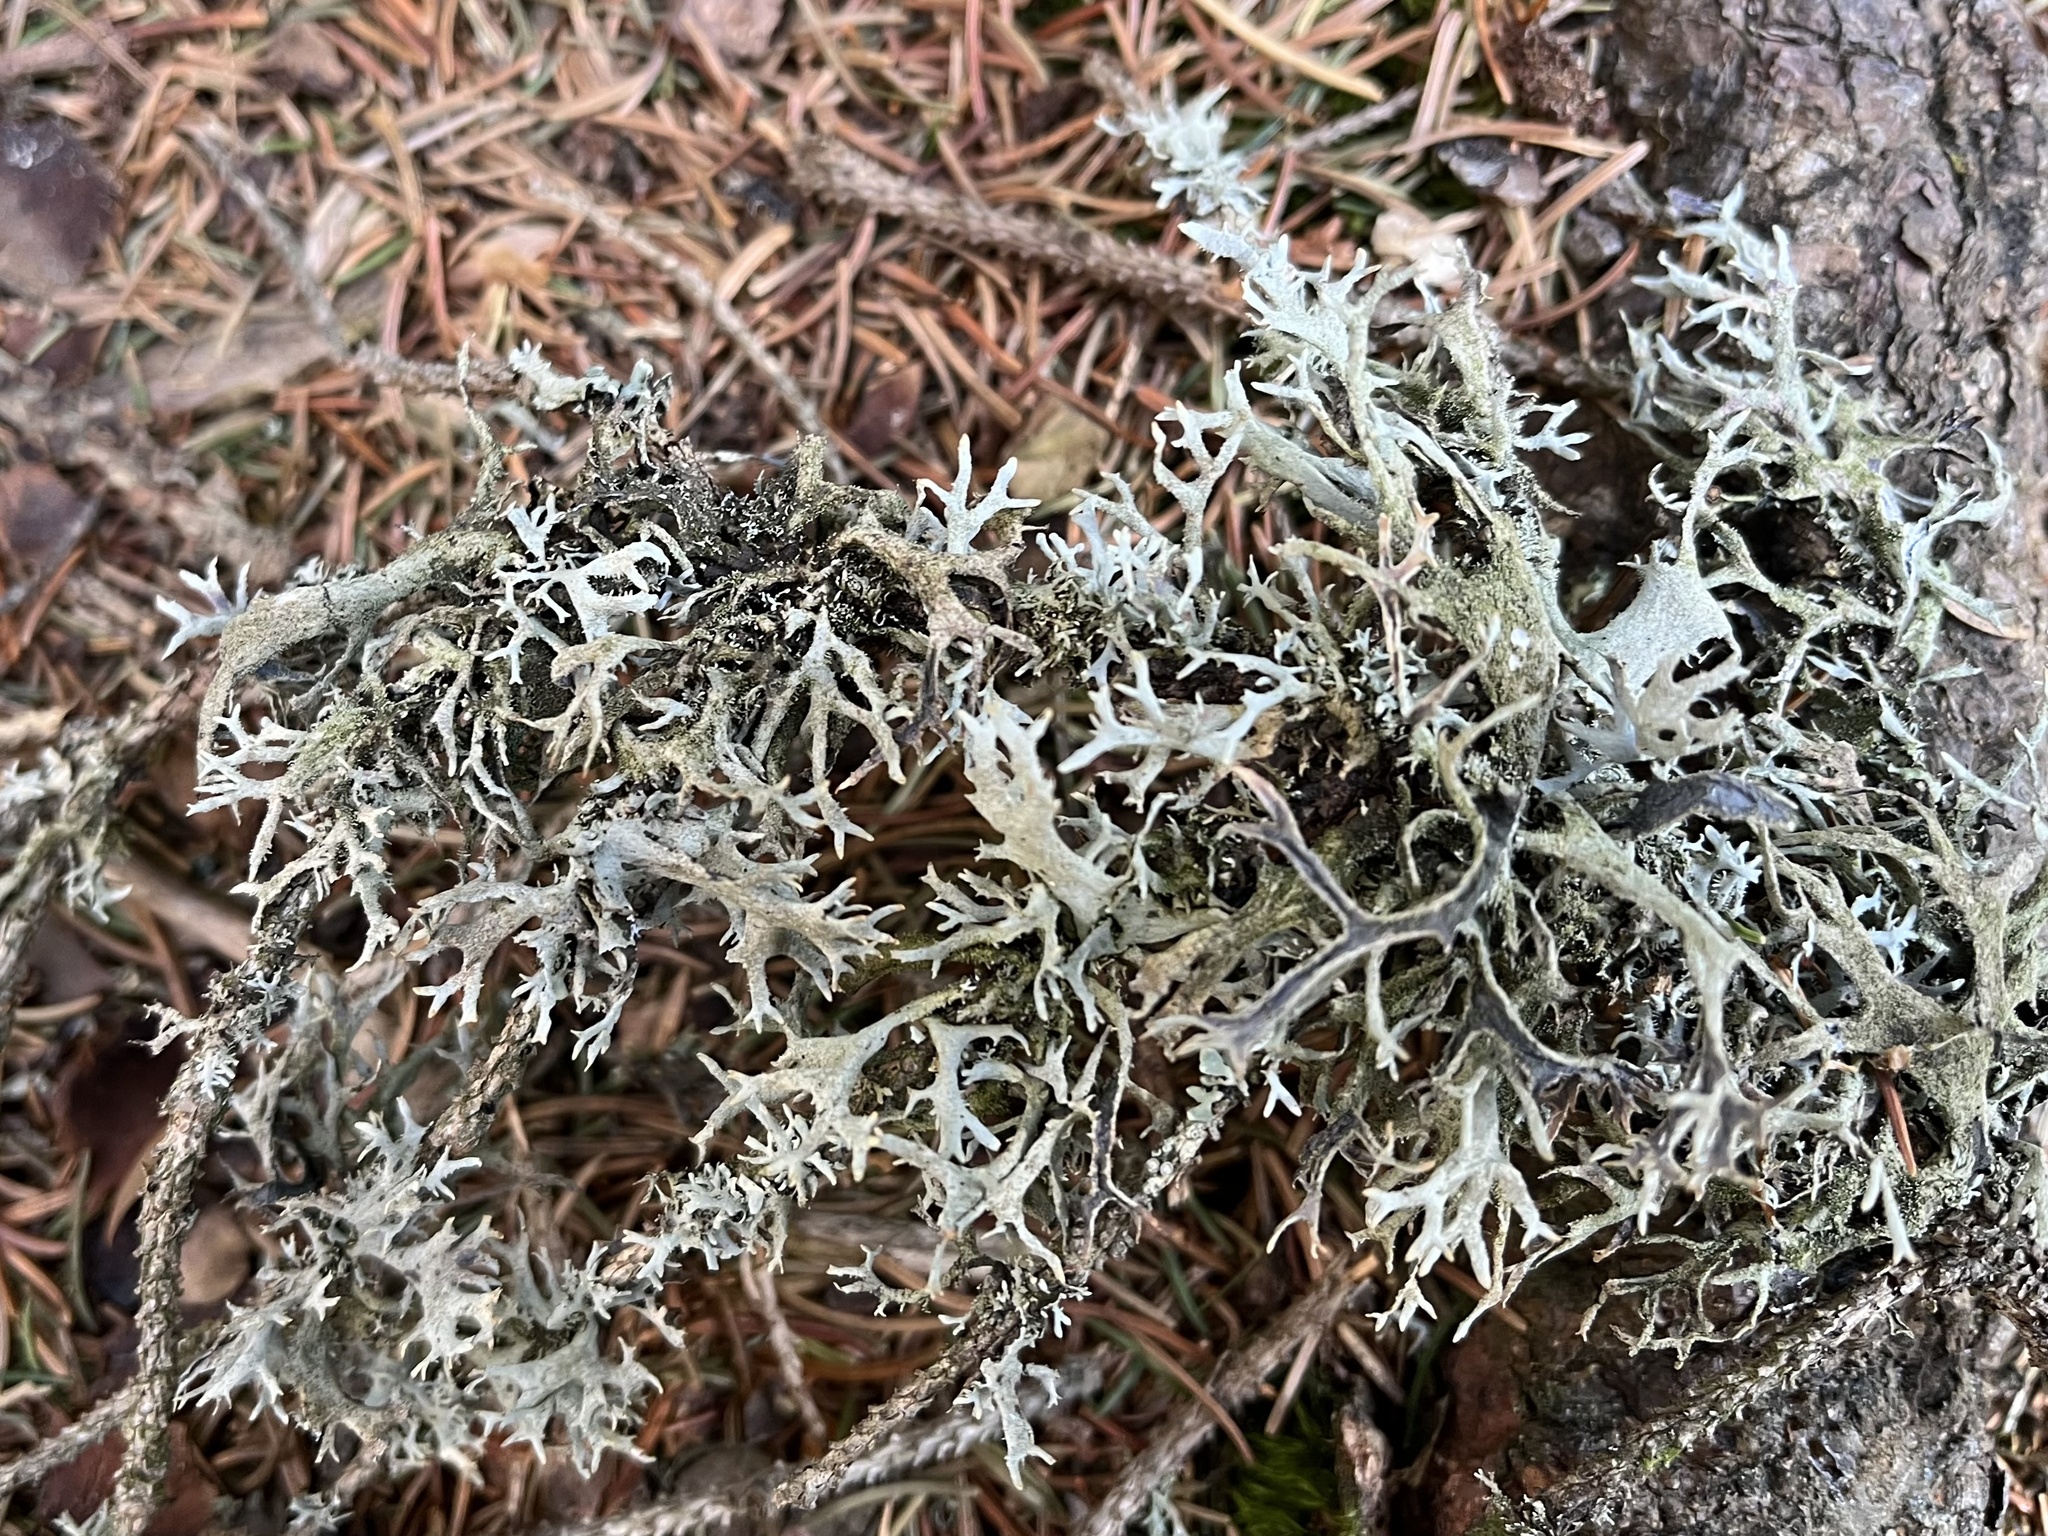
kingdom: Fungi
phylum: Ascomycota
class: Lecanoromycetes
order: Lecanorales
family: Parmeliaceae
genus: Pseudevernia
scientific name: Pseudevernia furfuracea
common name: Tree moss
